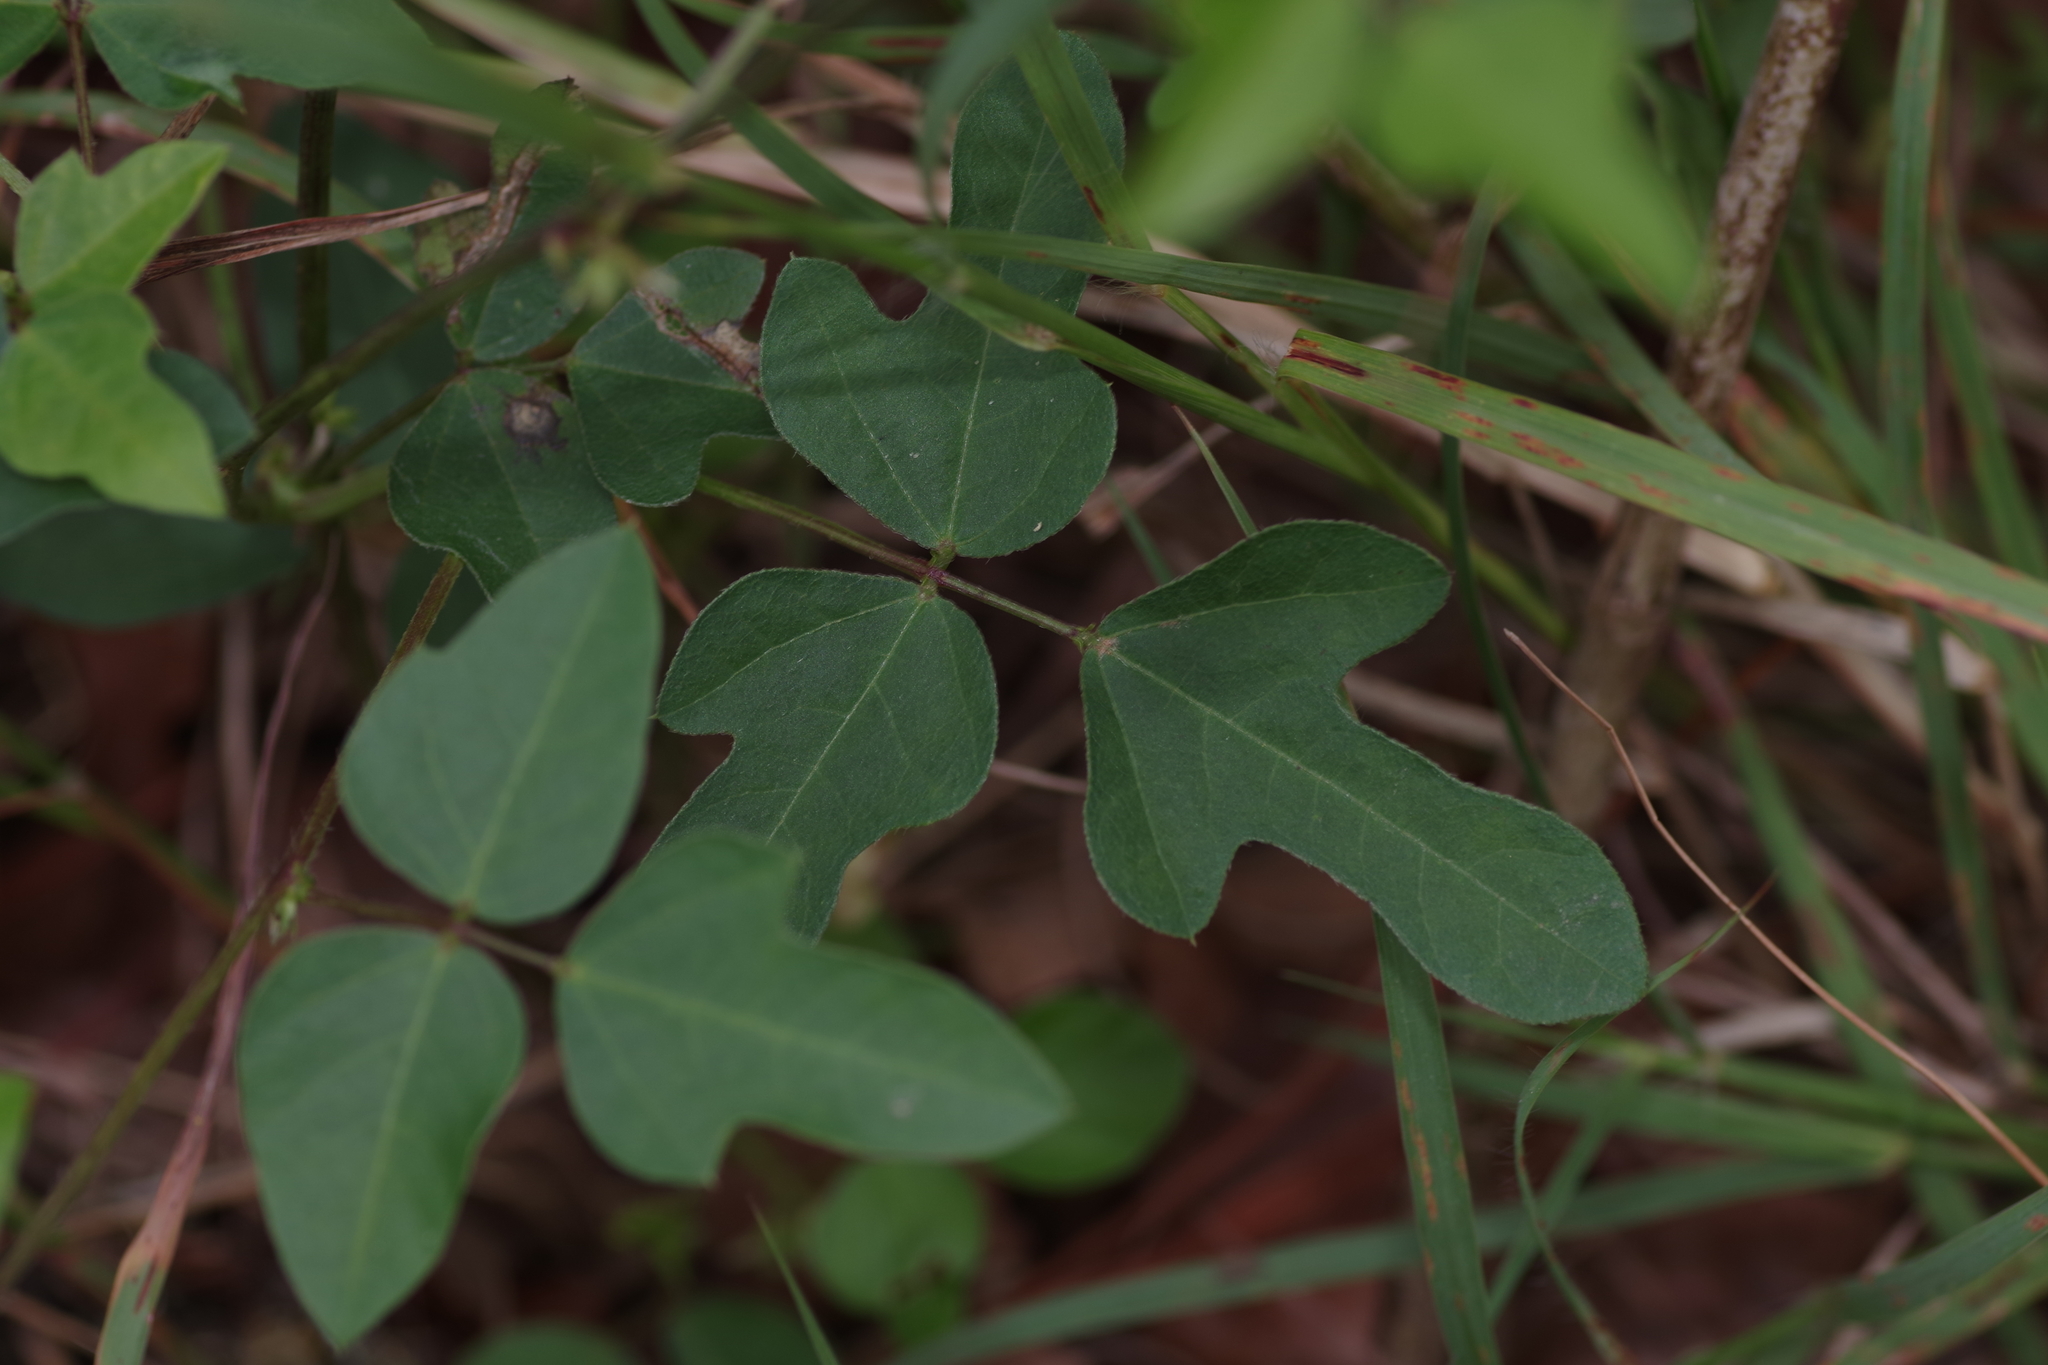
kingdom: Plantae
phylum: Tracheophyta
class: Magnoliopsida
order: Fabales
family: Fabaceae
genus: Strophostyles
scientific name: Strophostyles helvola
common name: Trailing wild bean
